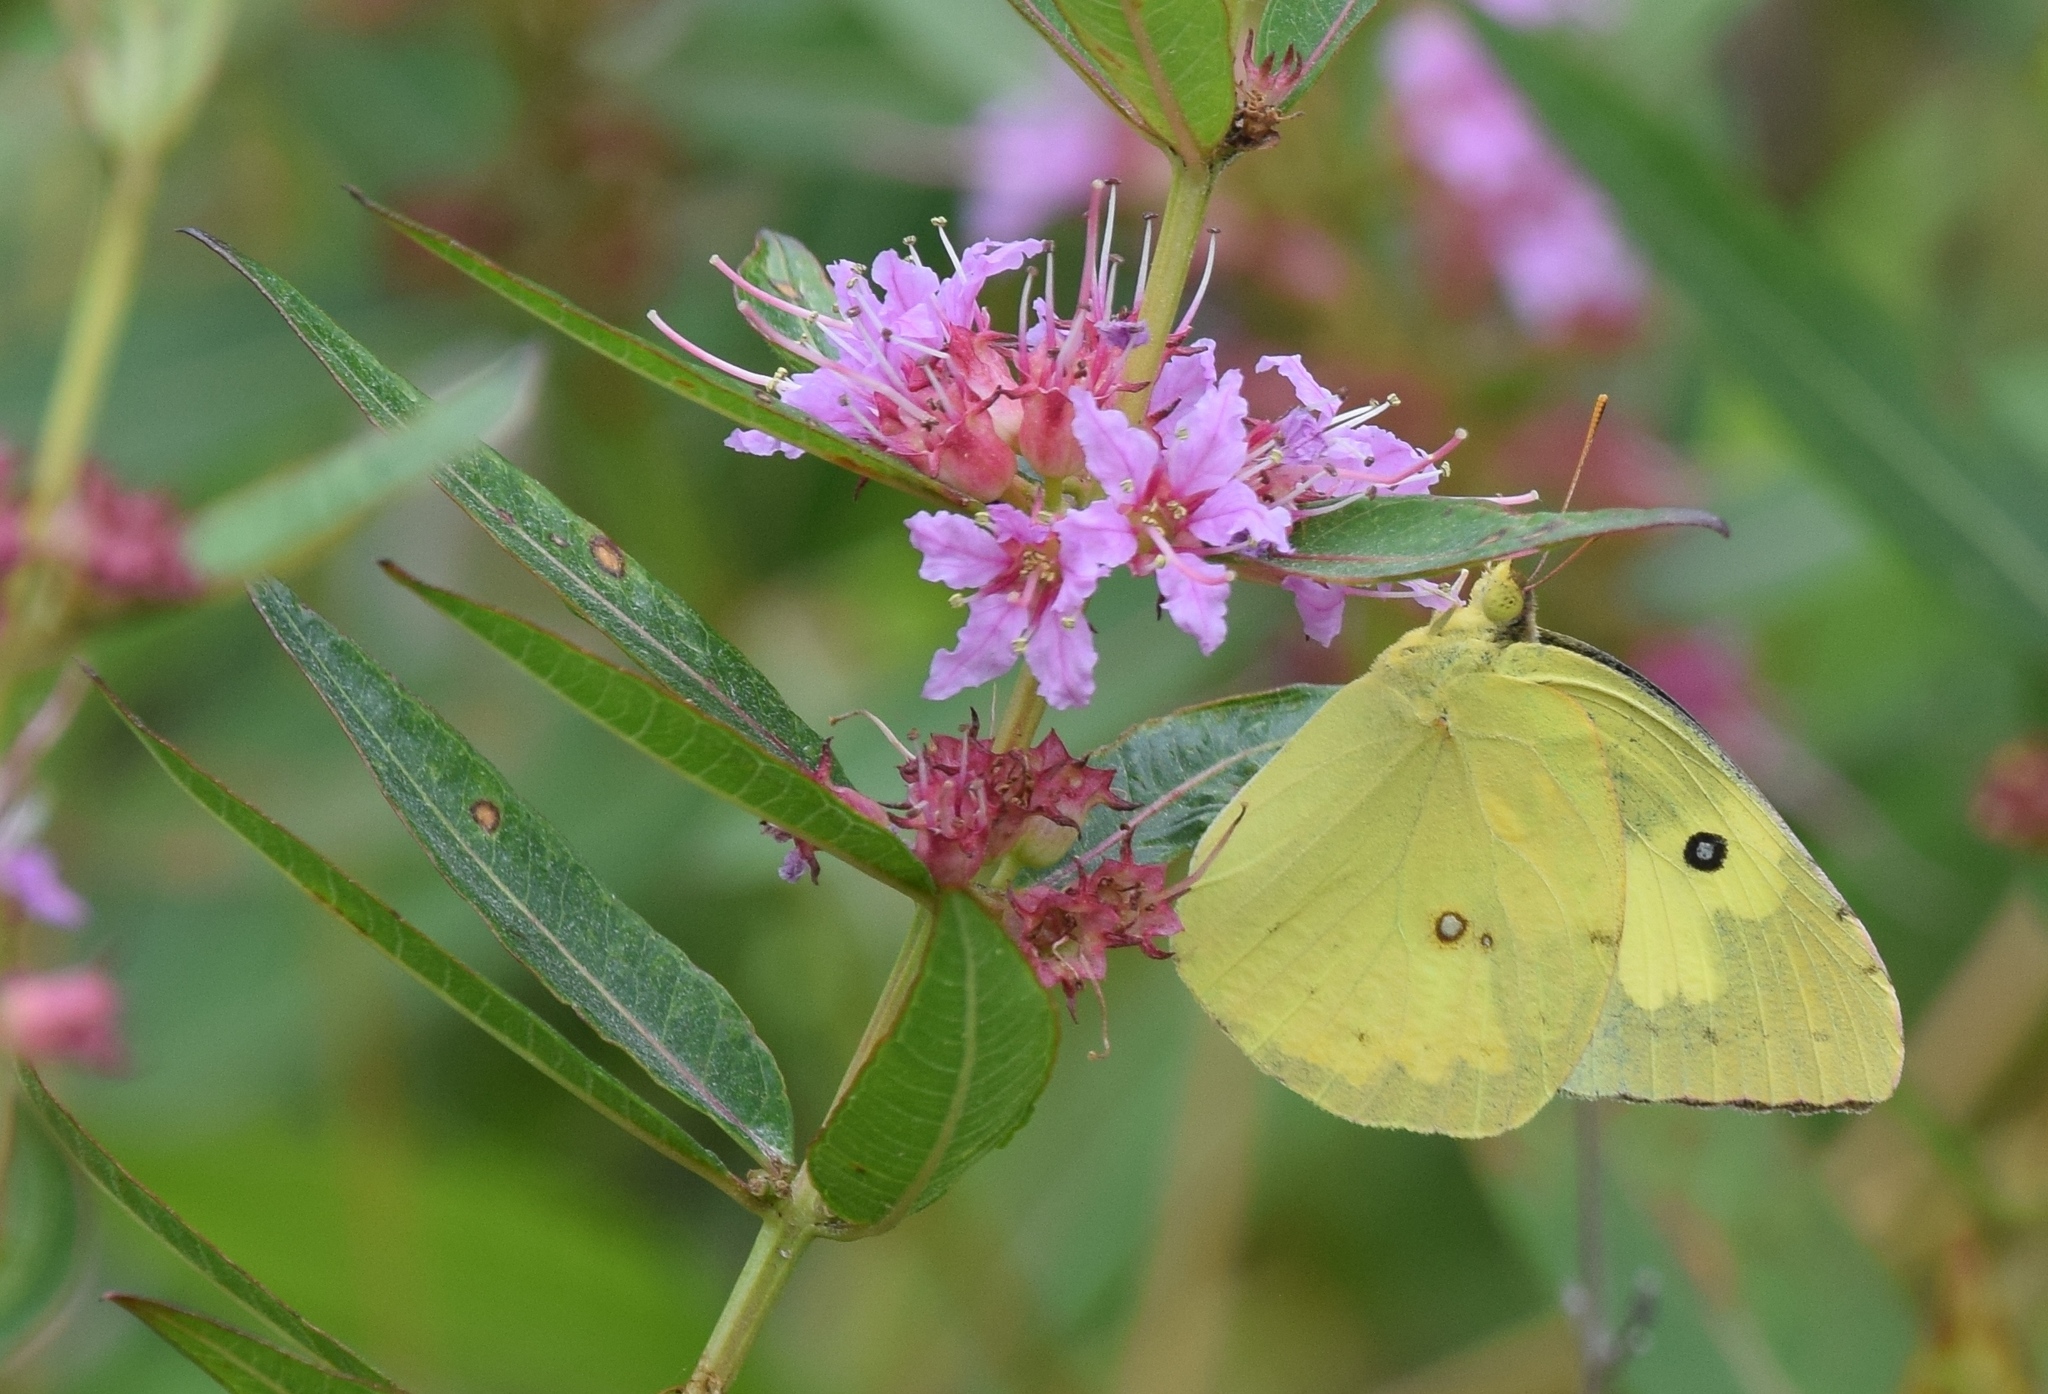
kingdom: Animalia
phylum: Arthropoda
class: Insecta
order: Lepidoptera
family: Pieridae
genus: Zerene
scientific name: Zerene cesonia
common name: Southern dogface
